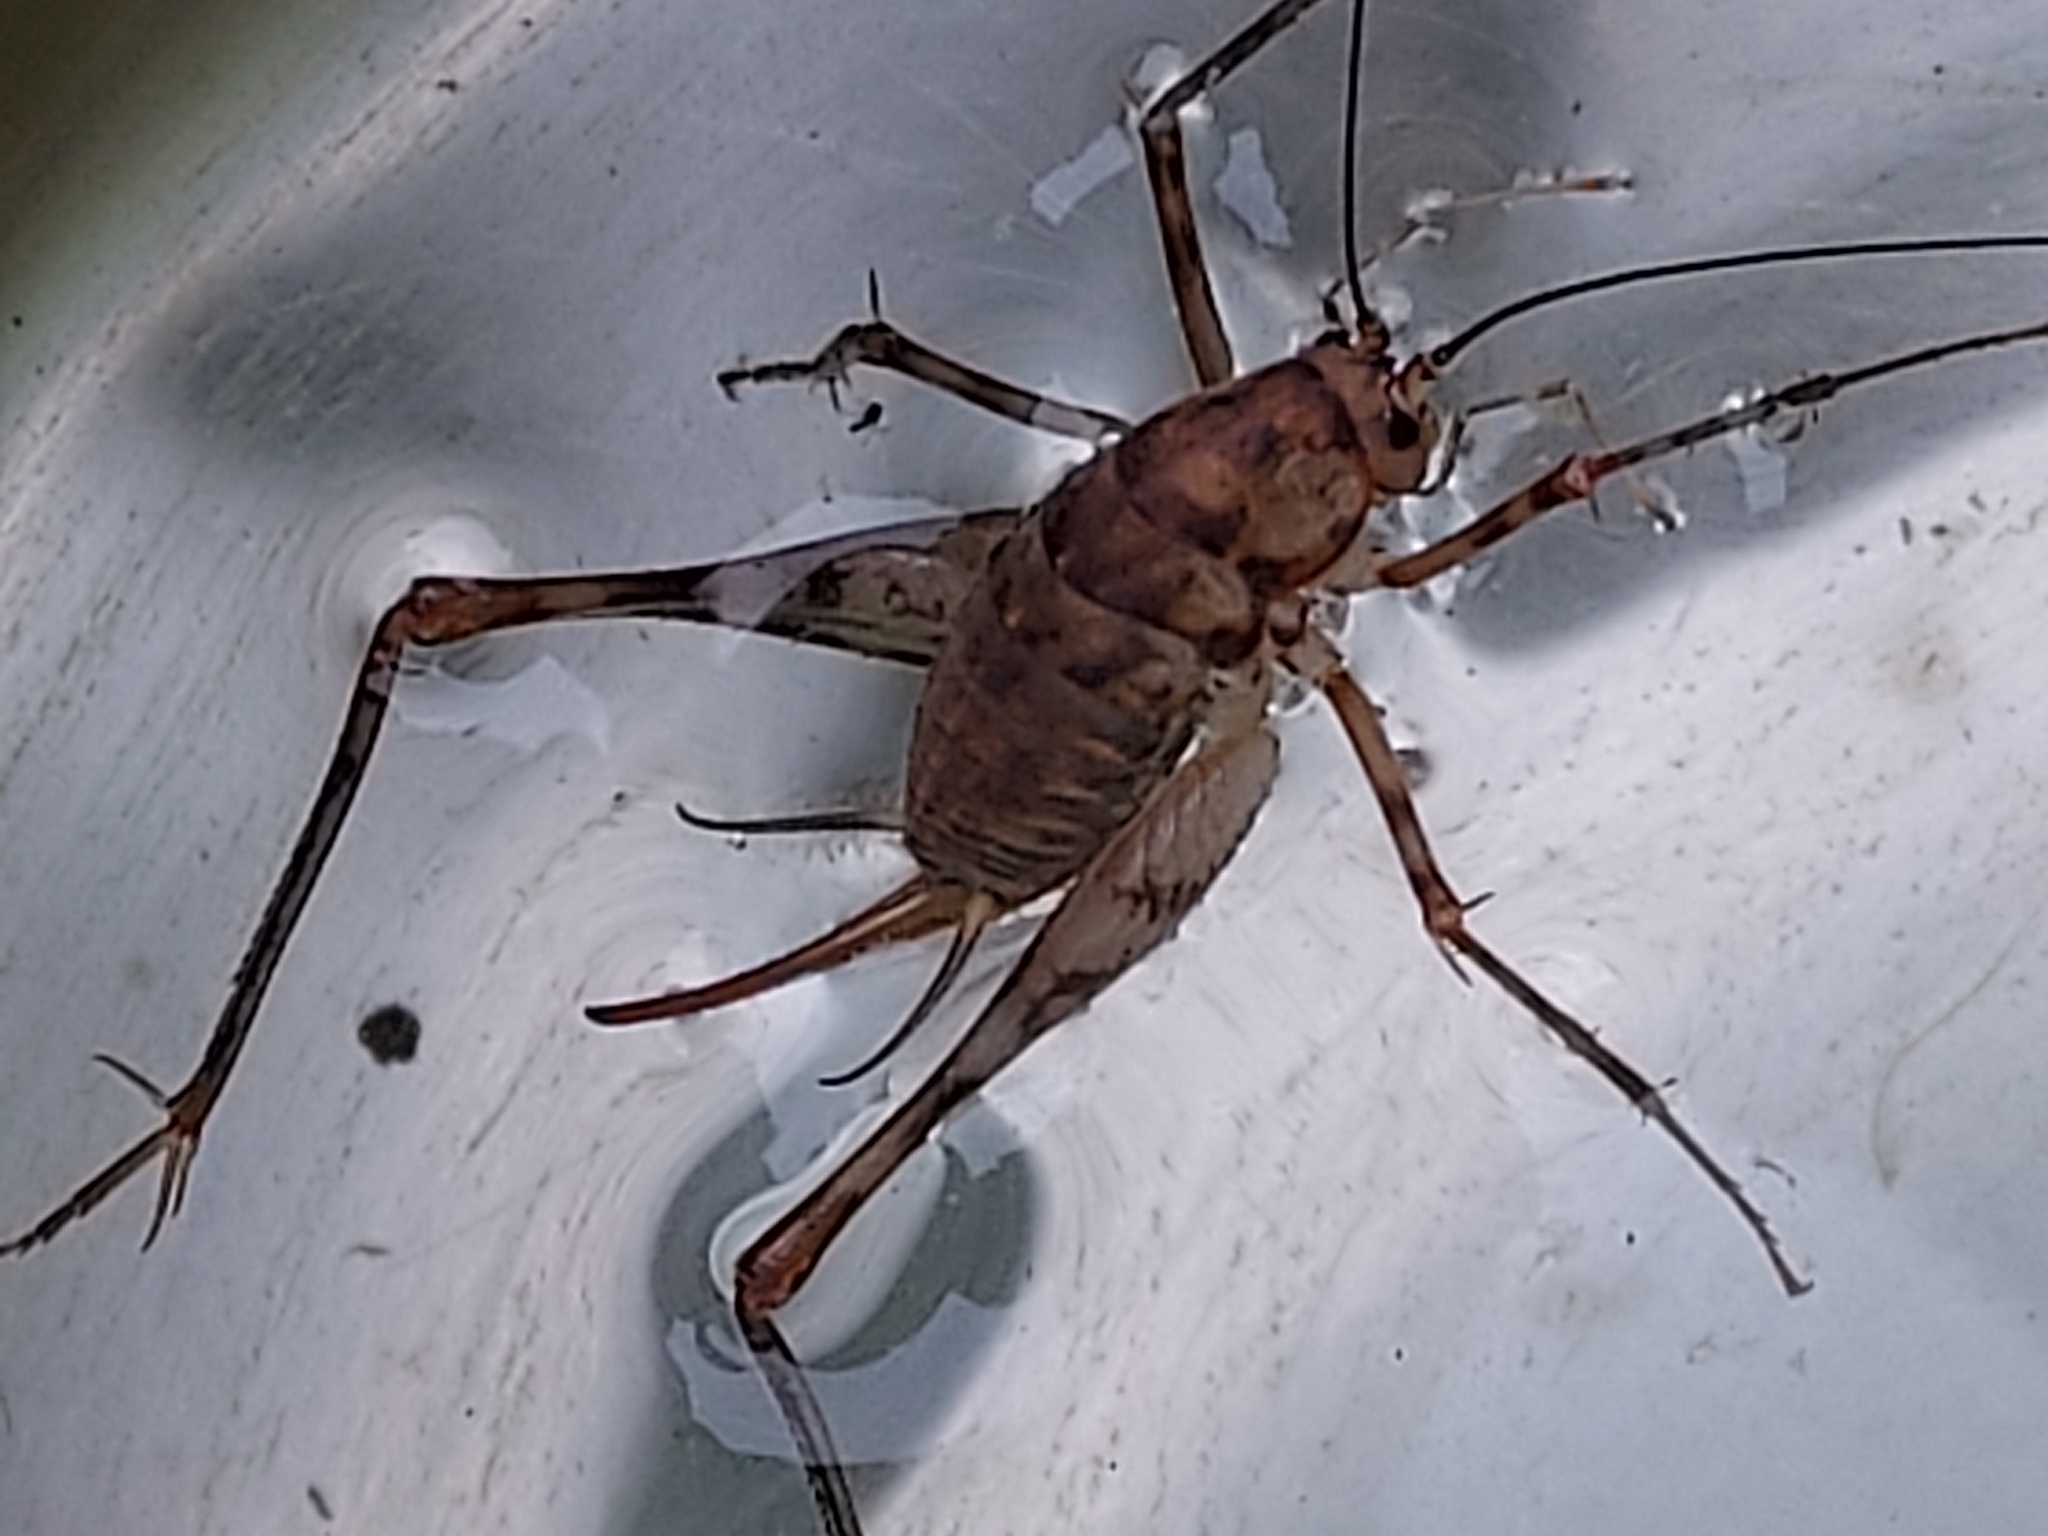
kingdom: Animalia
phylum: Arthropoda
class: Insecta
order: Orthoptera
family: Rhaphidophoridae
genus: Tachycines
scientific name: Tachycines asynamorus
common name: Greenhouse camel cricket
